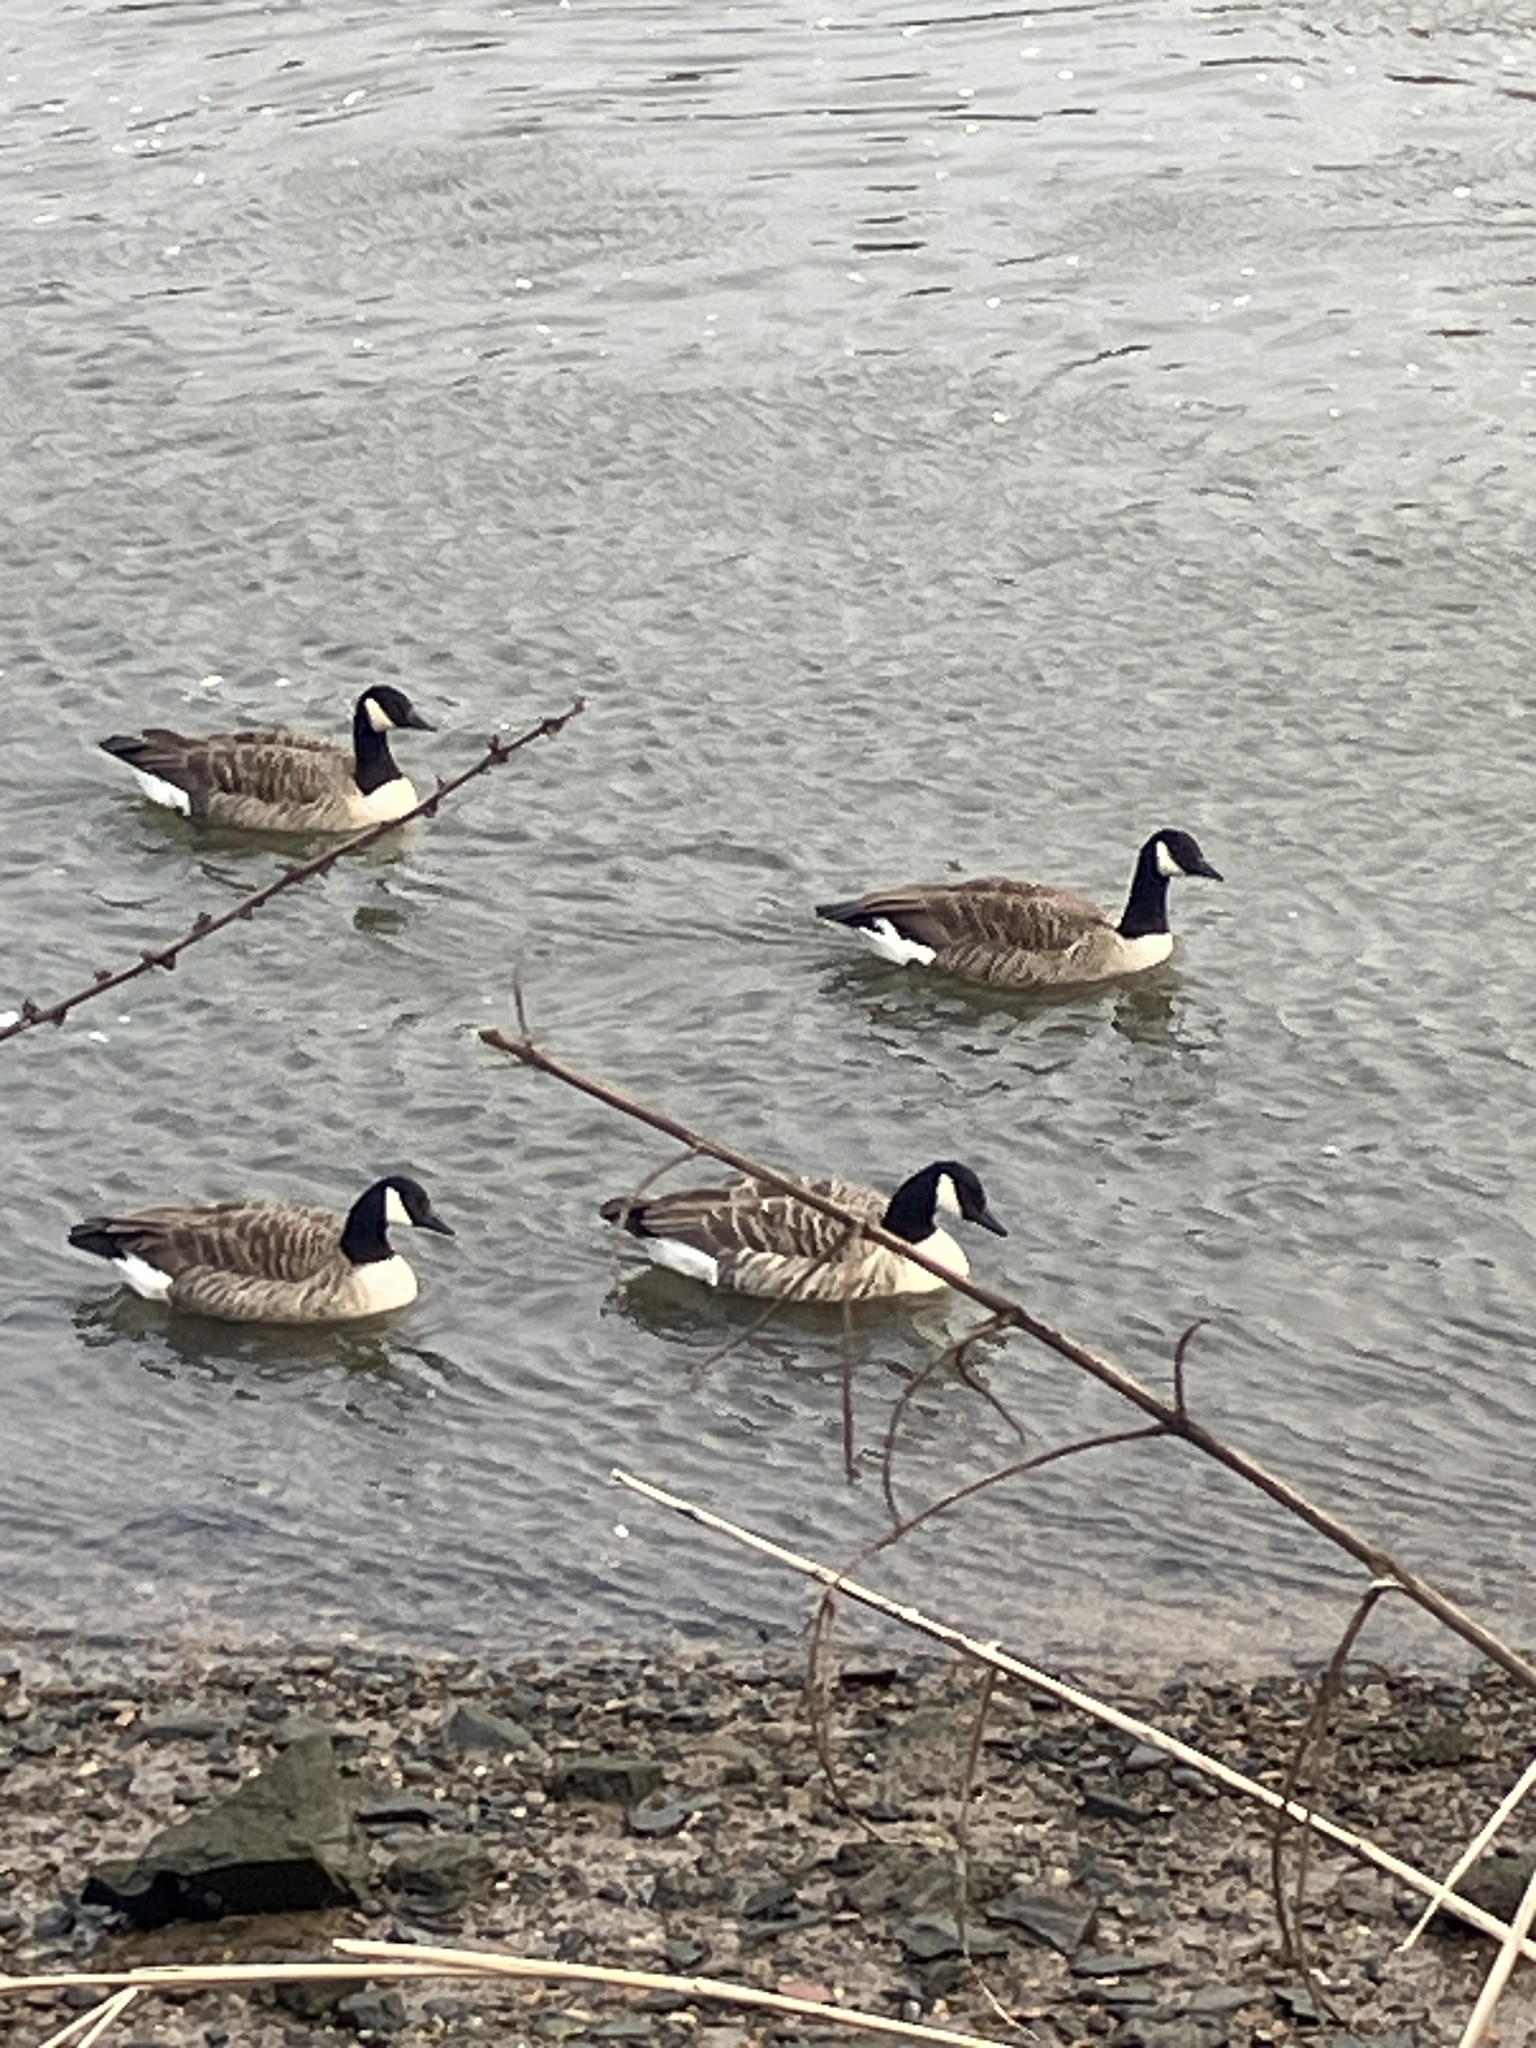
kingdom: Animalia
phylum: Chordata
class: Aves
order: Anseriformes
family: Anatidae
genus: Branta
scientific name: Branta canadensis
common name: Canada goose
